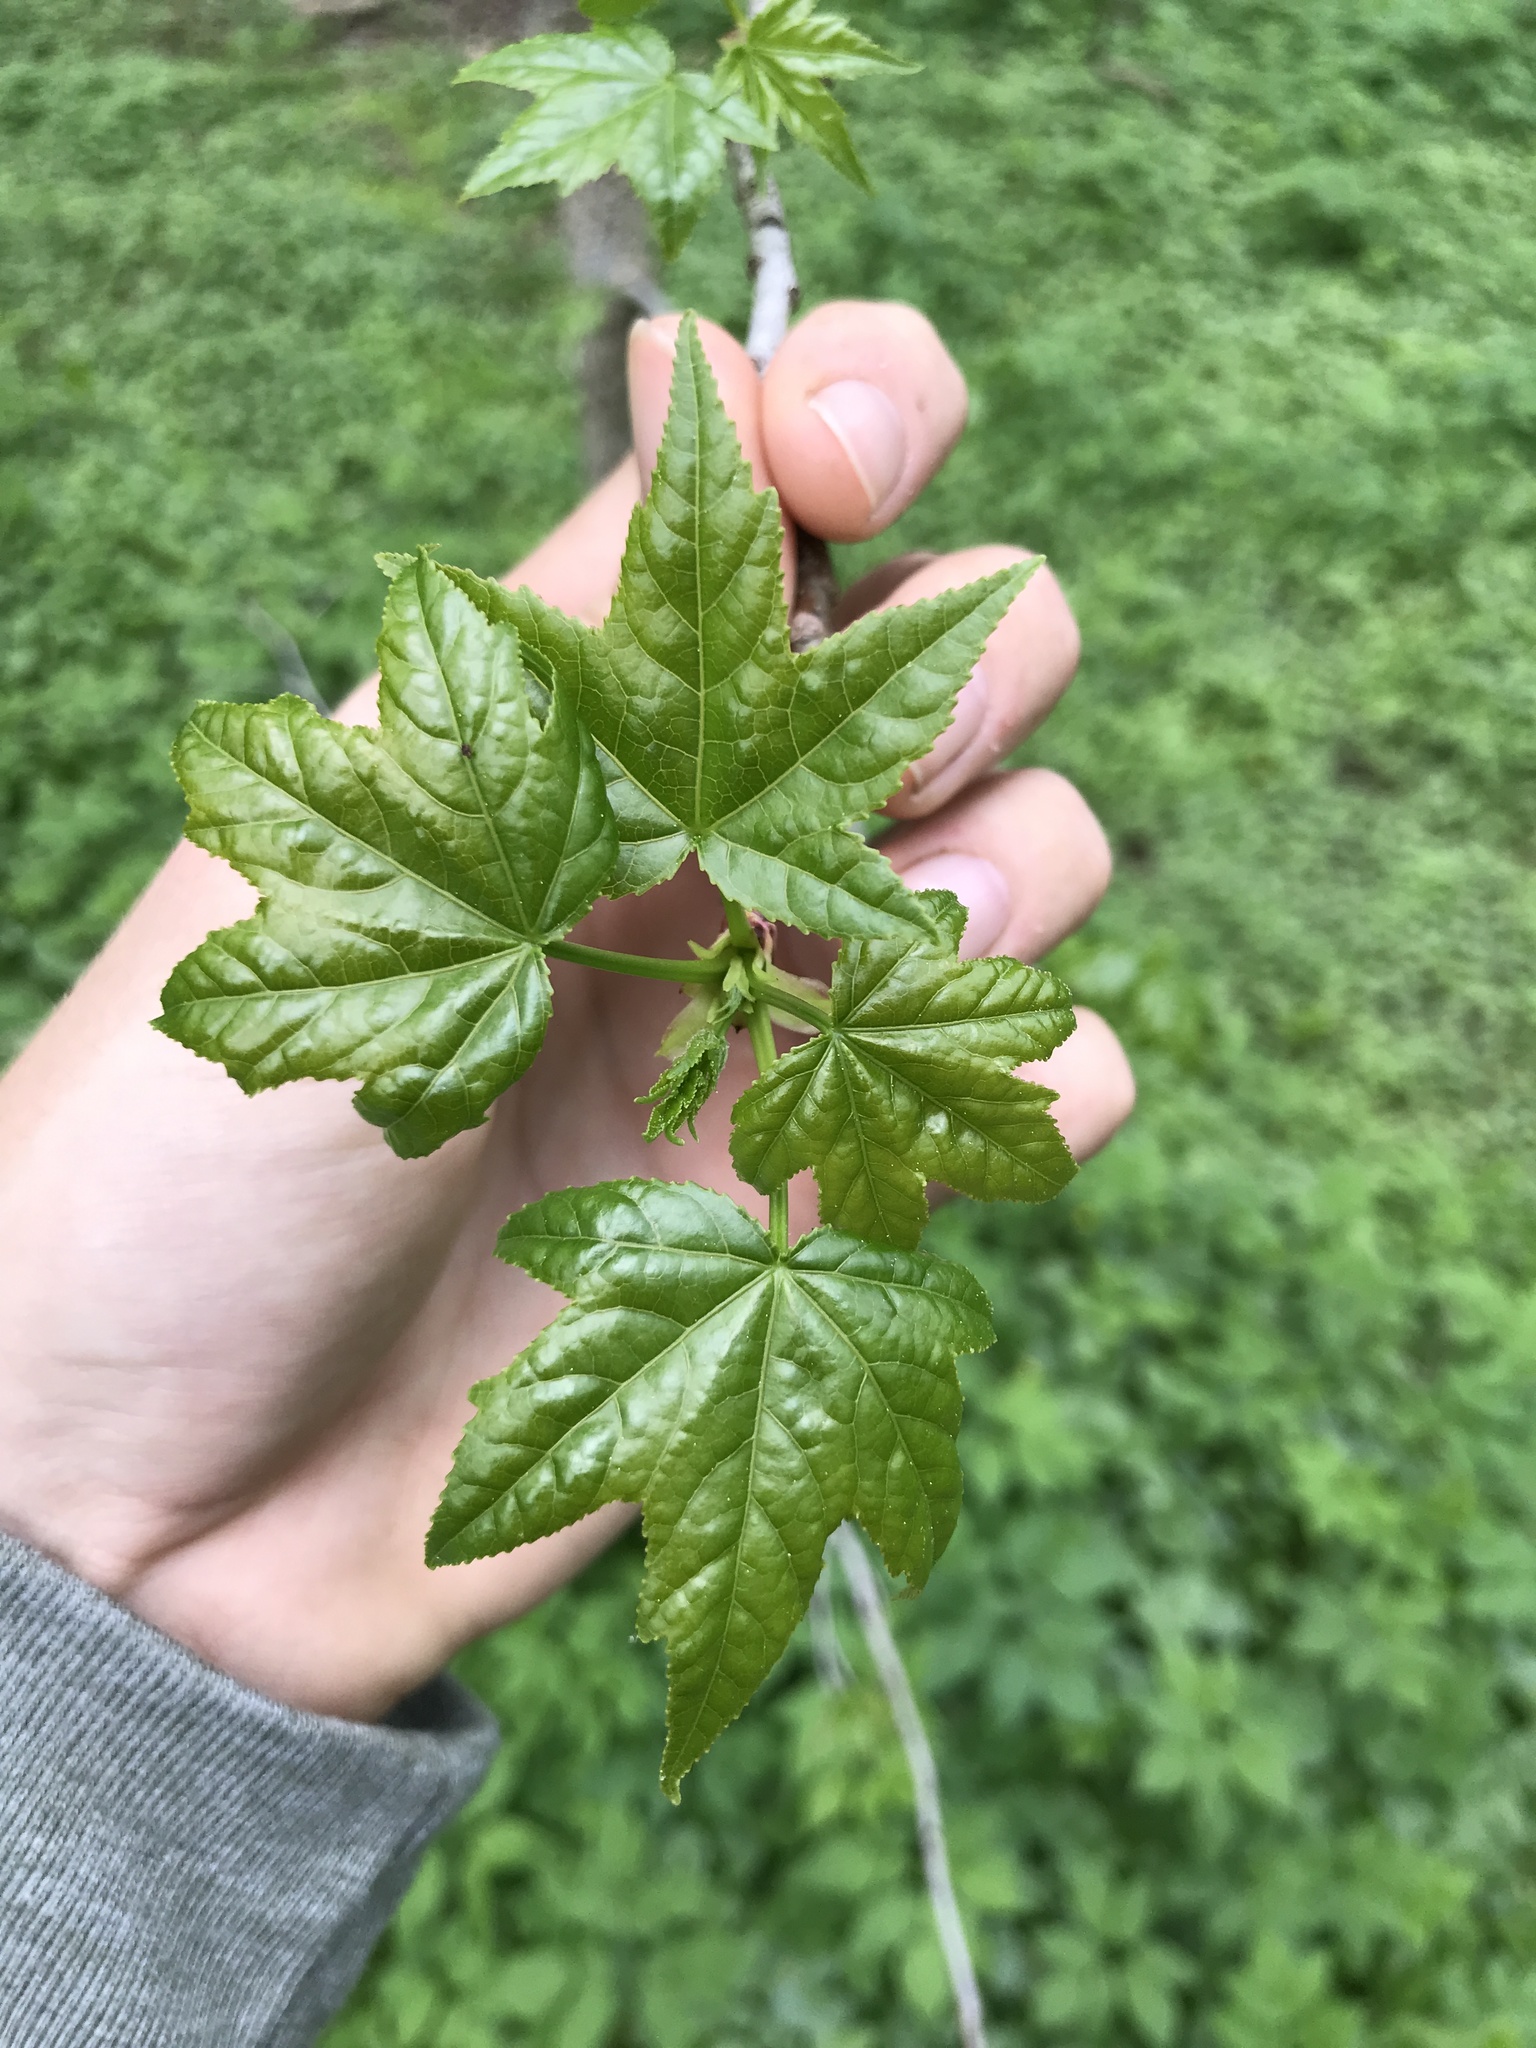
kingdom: Plantae
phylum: Tracheophyta
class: Magnoliopsida
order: Saxifragales
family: Altingiaceae
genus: Liquidambar
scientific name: Liquidambar styraciflua
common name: Sweet gum
